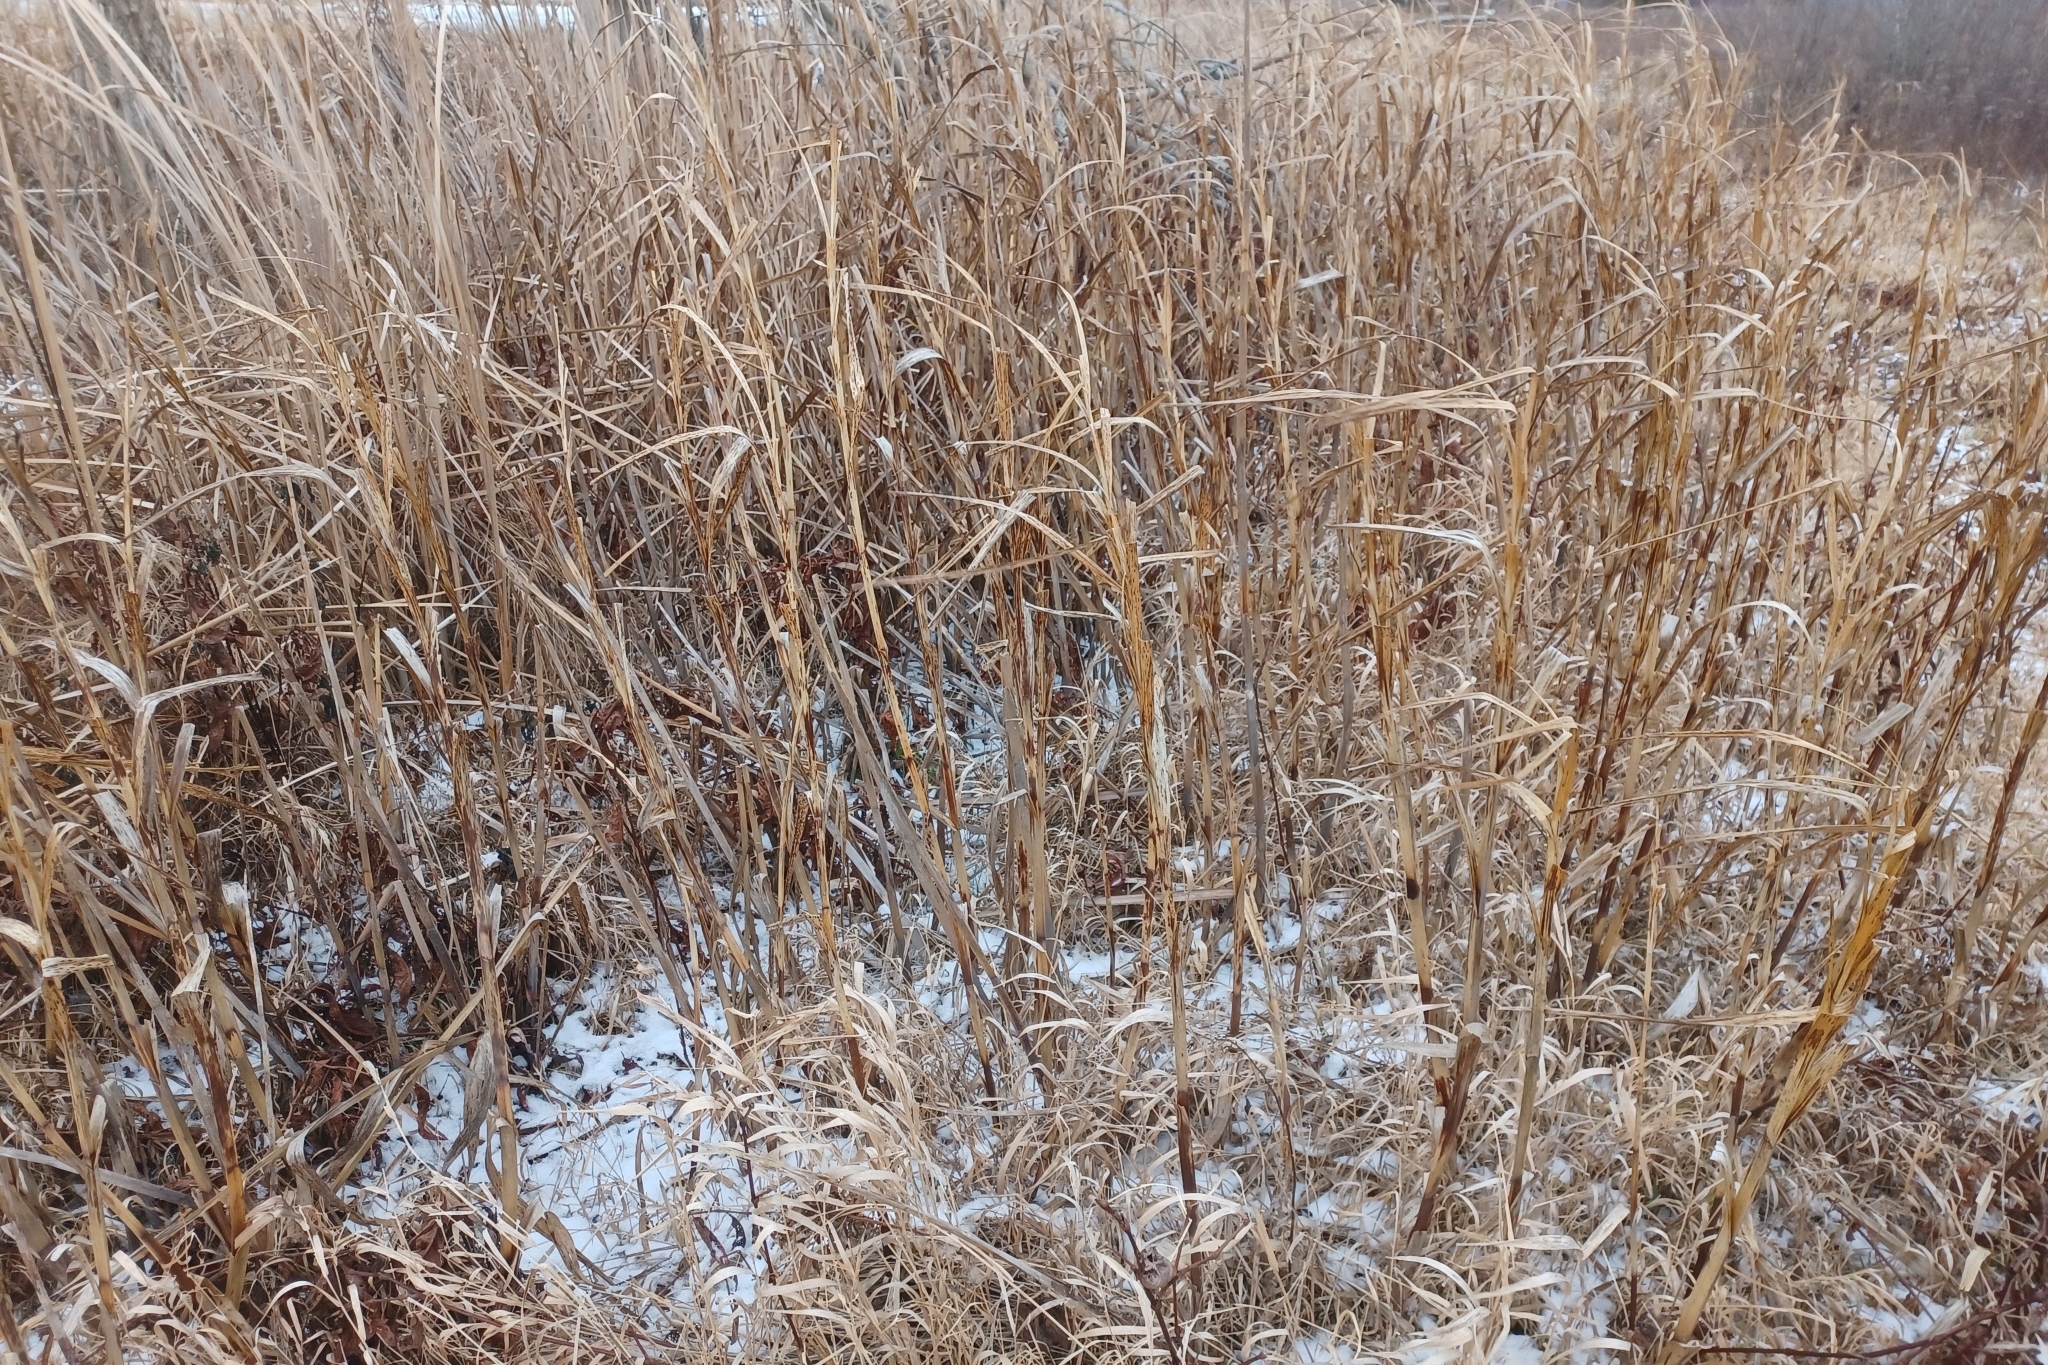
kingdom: Plantae
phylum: Tracheophyta
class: Liliopsida
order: Poales
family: Cyperaceae
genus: Bolboschoenus
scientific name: Bolboschoenus fluviatilis
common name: River bulrush
